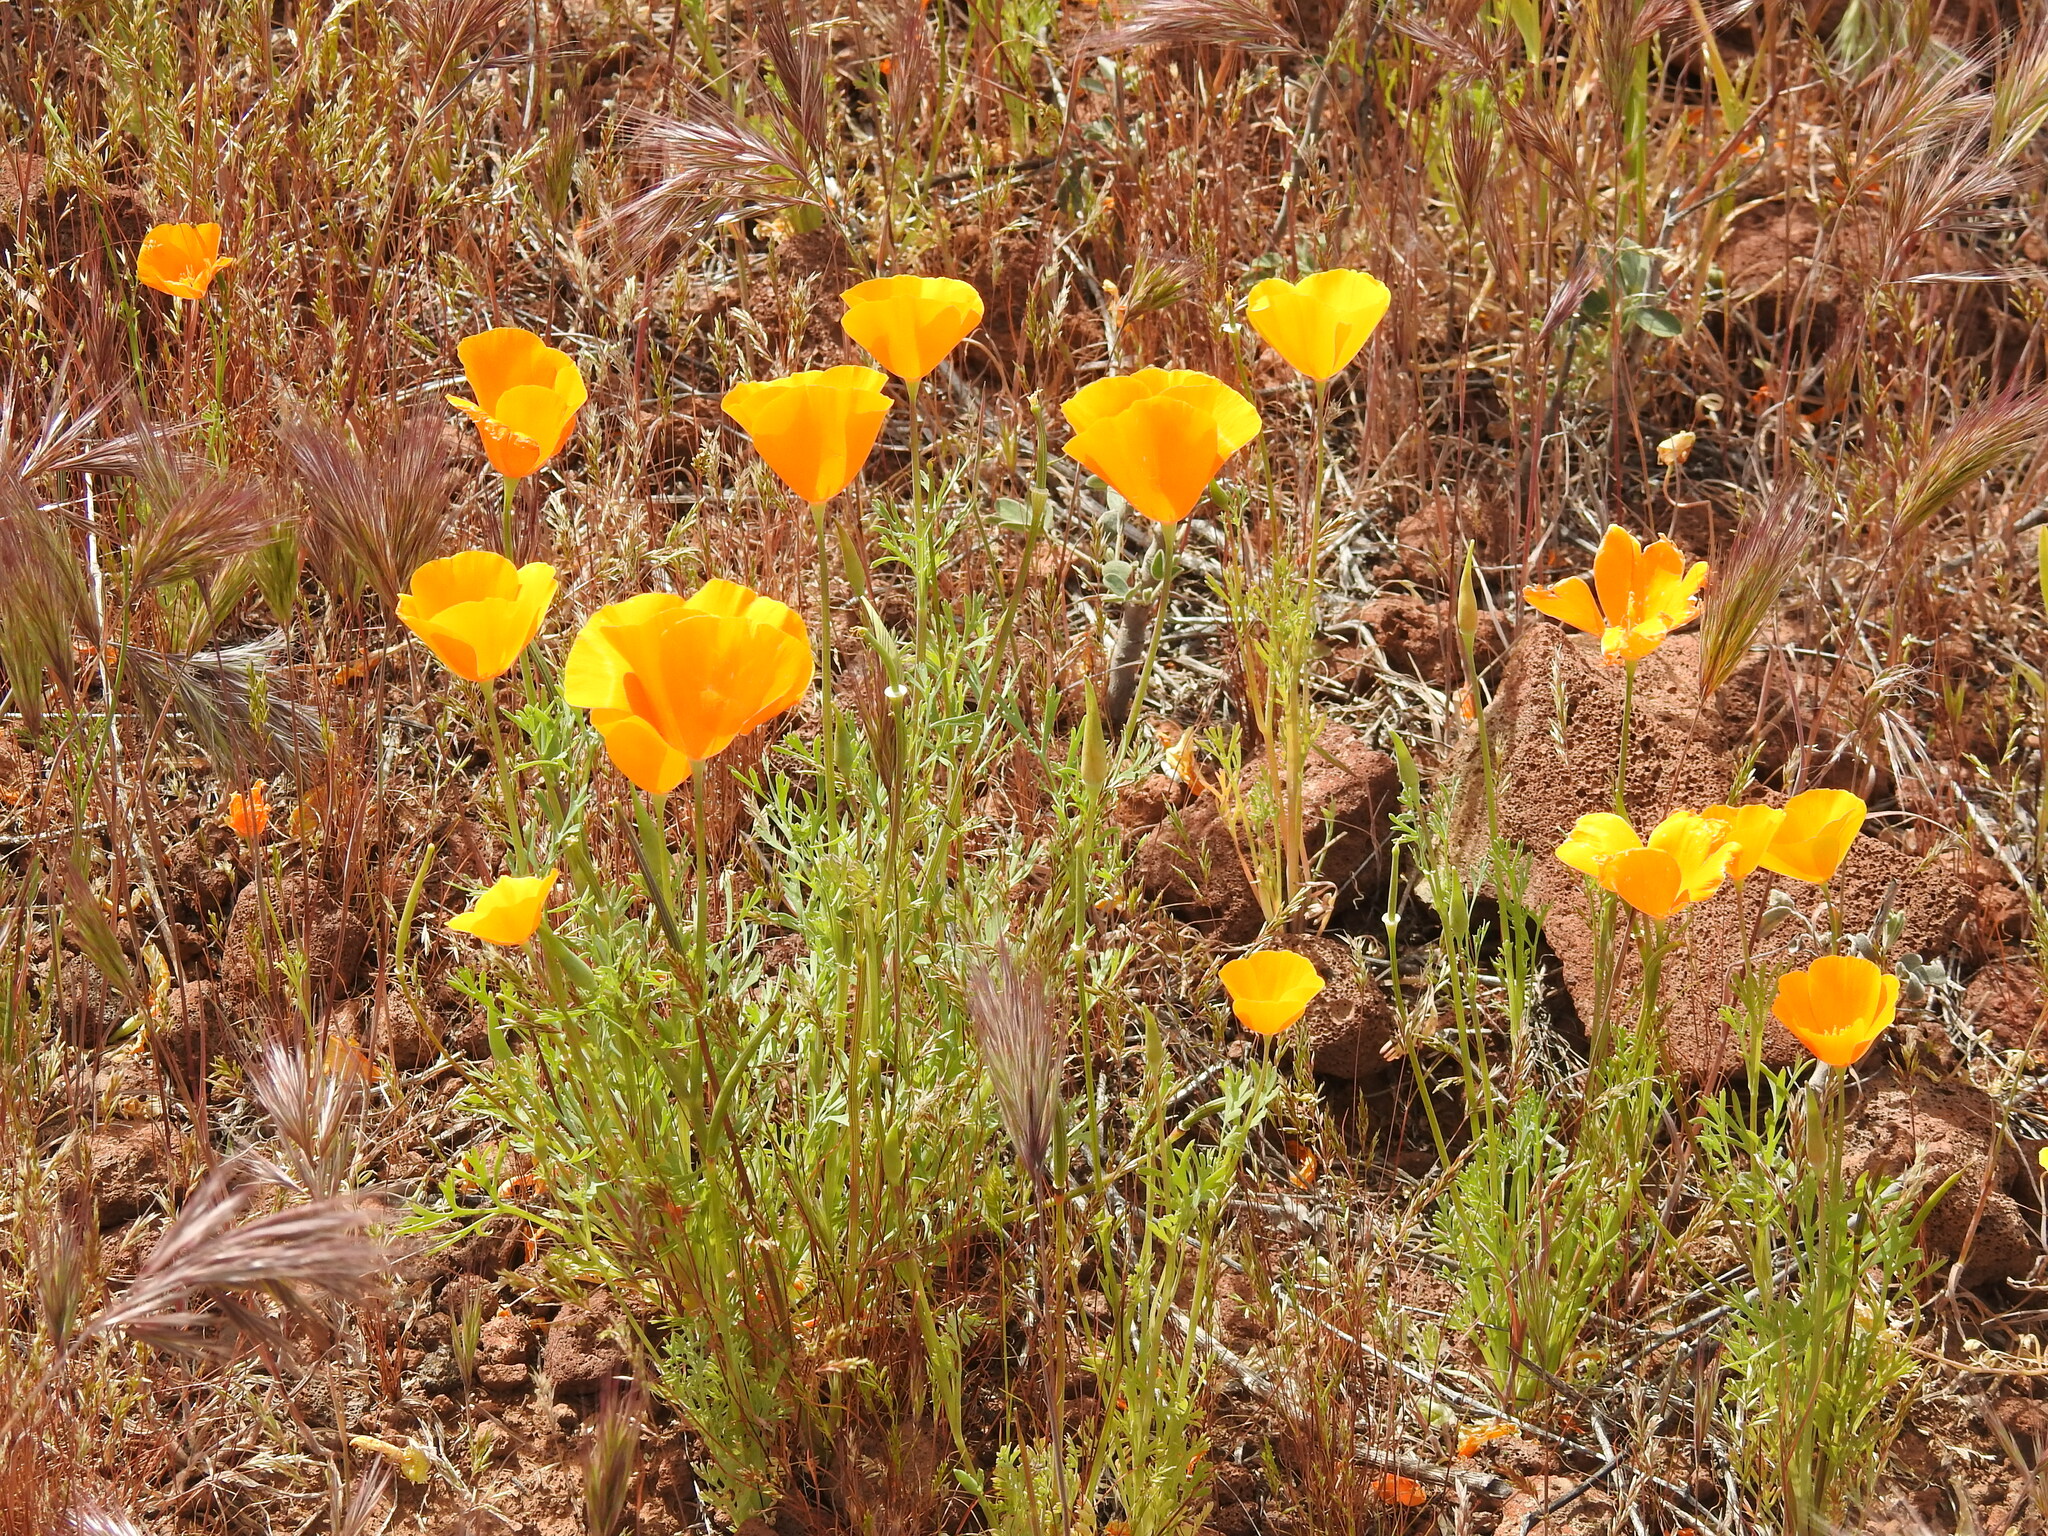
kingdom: Plantae
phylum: Tracheophyta
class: Magnoliopsida
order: Ranunculales
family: Papaveraceae
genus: Eschscholzia
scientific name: Eschscholzia californica
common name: California poppy
